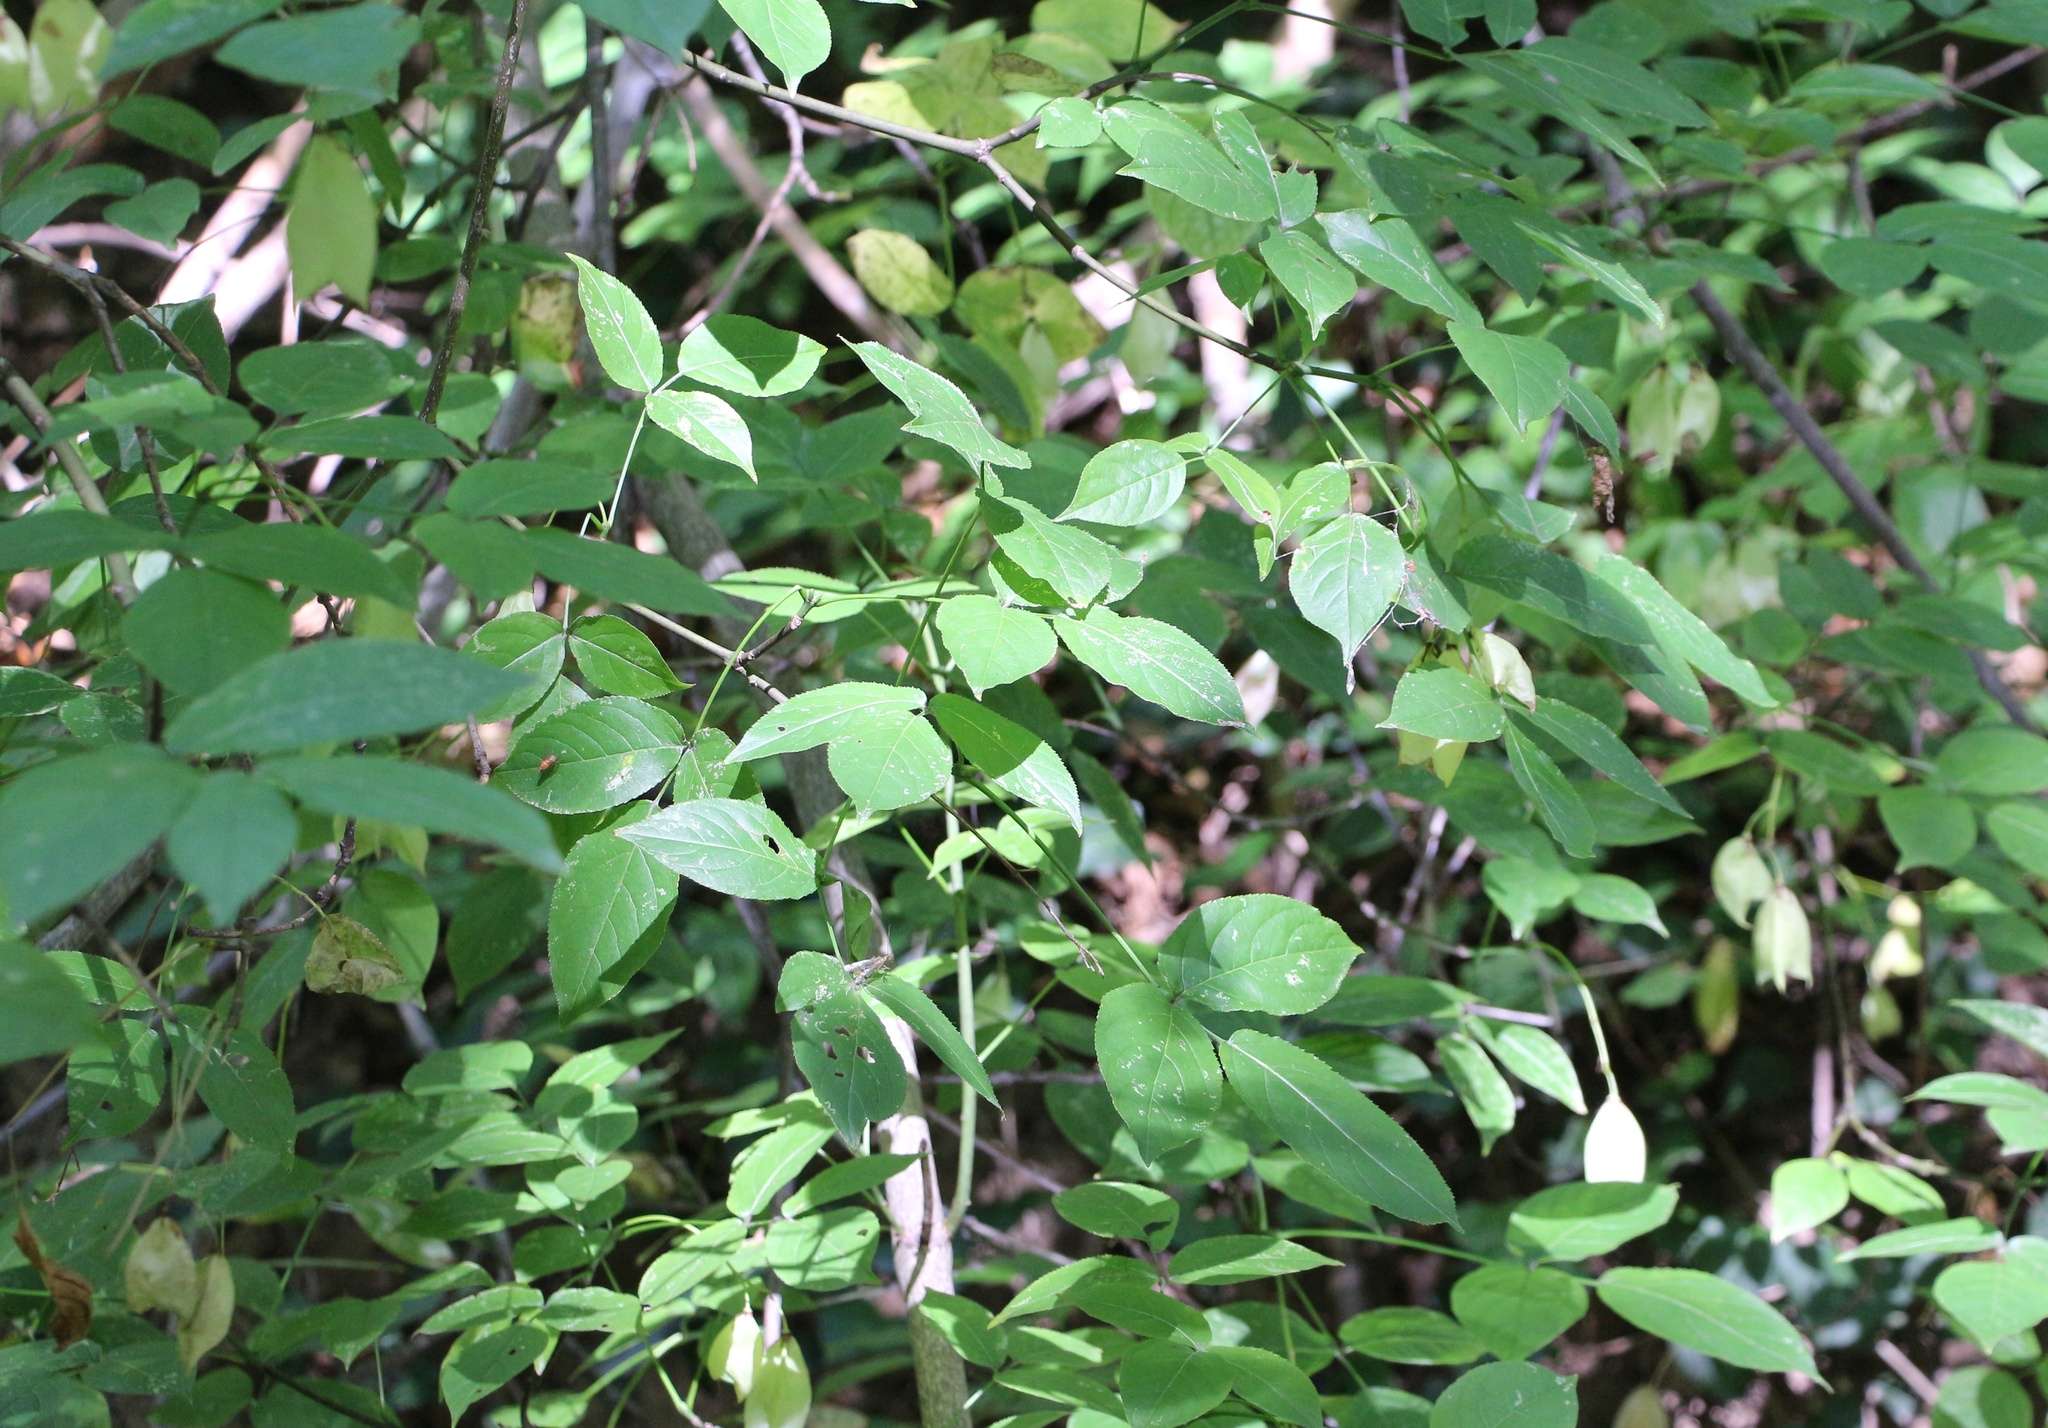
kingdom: Plantae
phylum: Tracheophyta
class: Magnoliopsida
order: Crossosomatales
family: Staphyleaceae
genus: Staphylea
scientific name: Staphylea colchica
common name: Caucasian bladdernut
